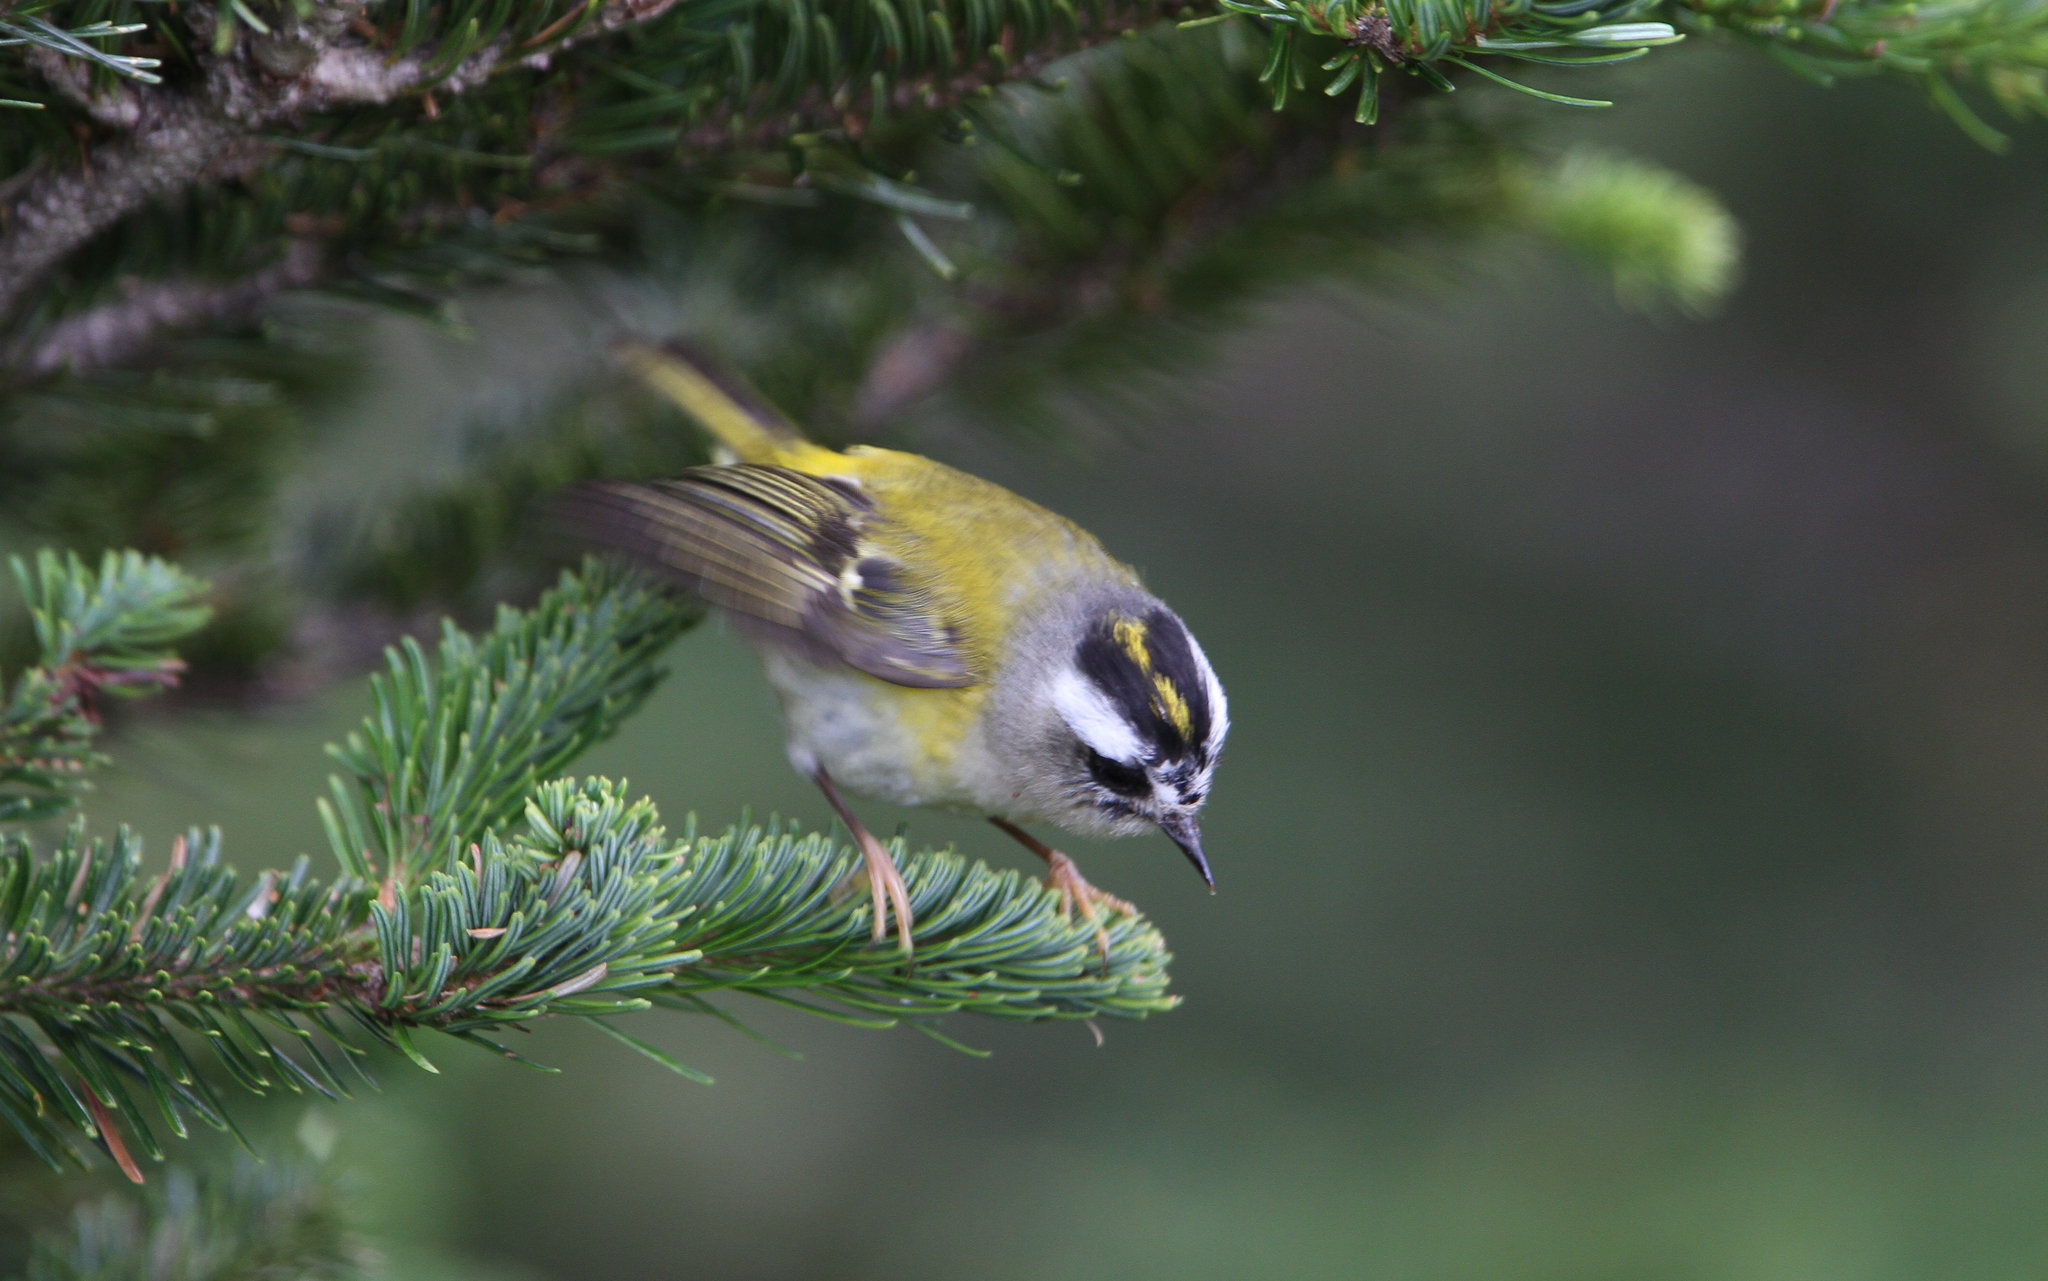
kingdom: Animalia
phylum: Chordata
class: Aves
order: Passeriformes
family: Regulidae
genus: Regulus
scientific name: Regulus goodfellowi
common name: Flamecrest
